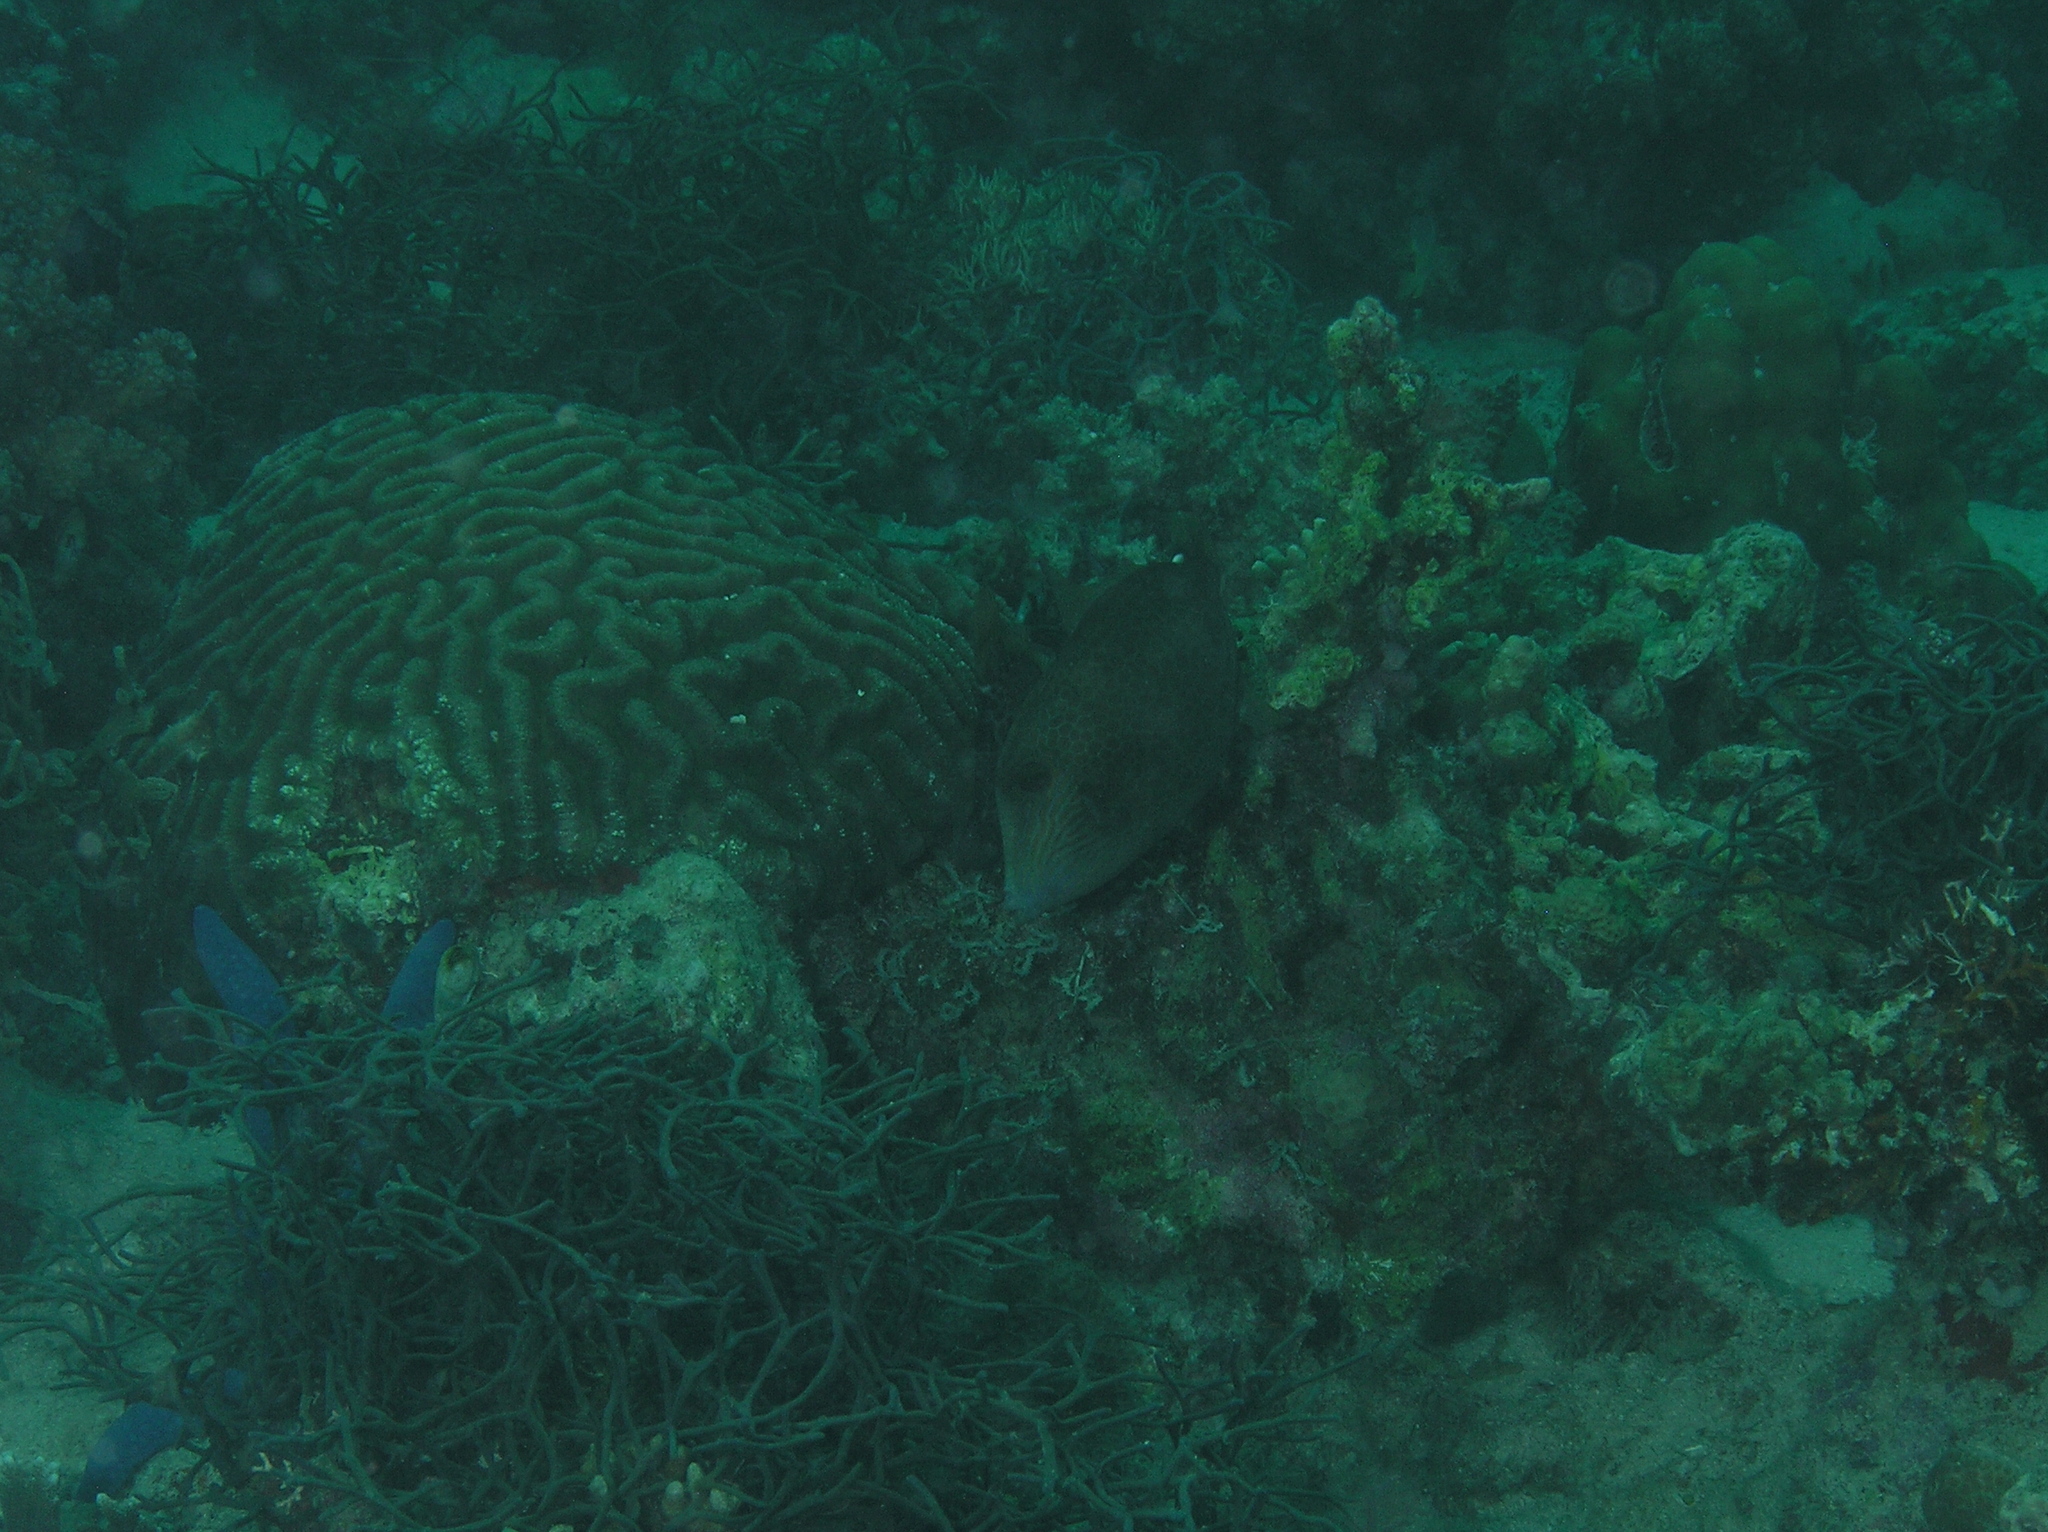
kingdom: Animalia
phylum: Chordata
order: Tetraodontiformes
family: Monacanthidae
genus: Cantherhines
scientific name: Cantherhines pardalis
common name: Honeycomb filefish
